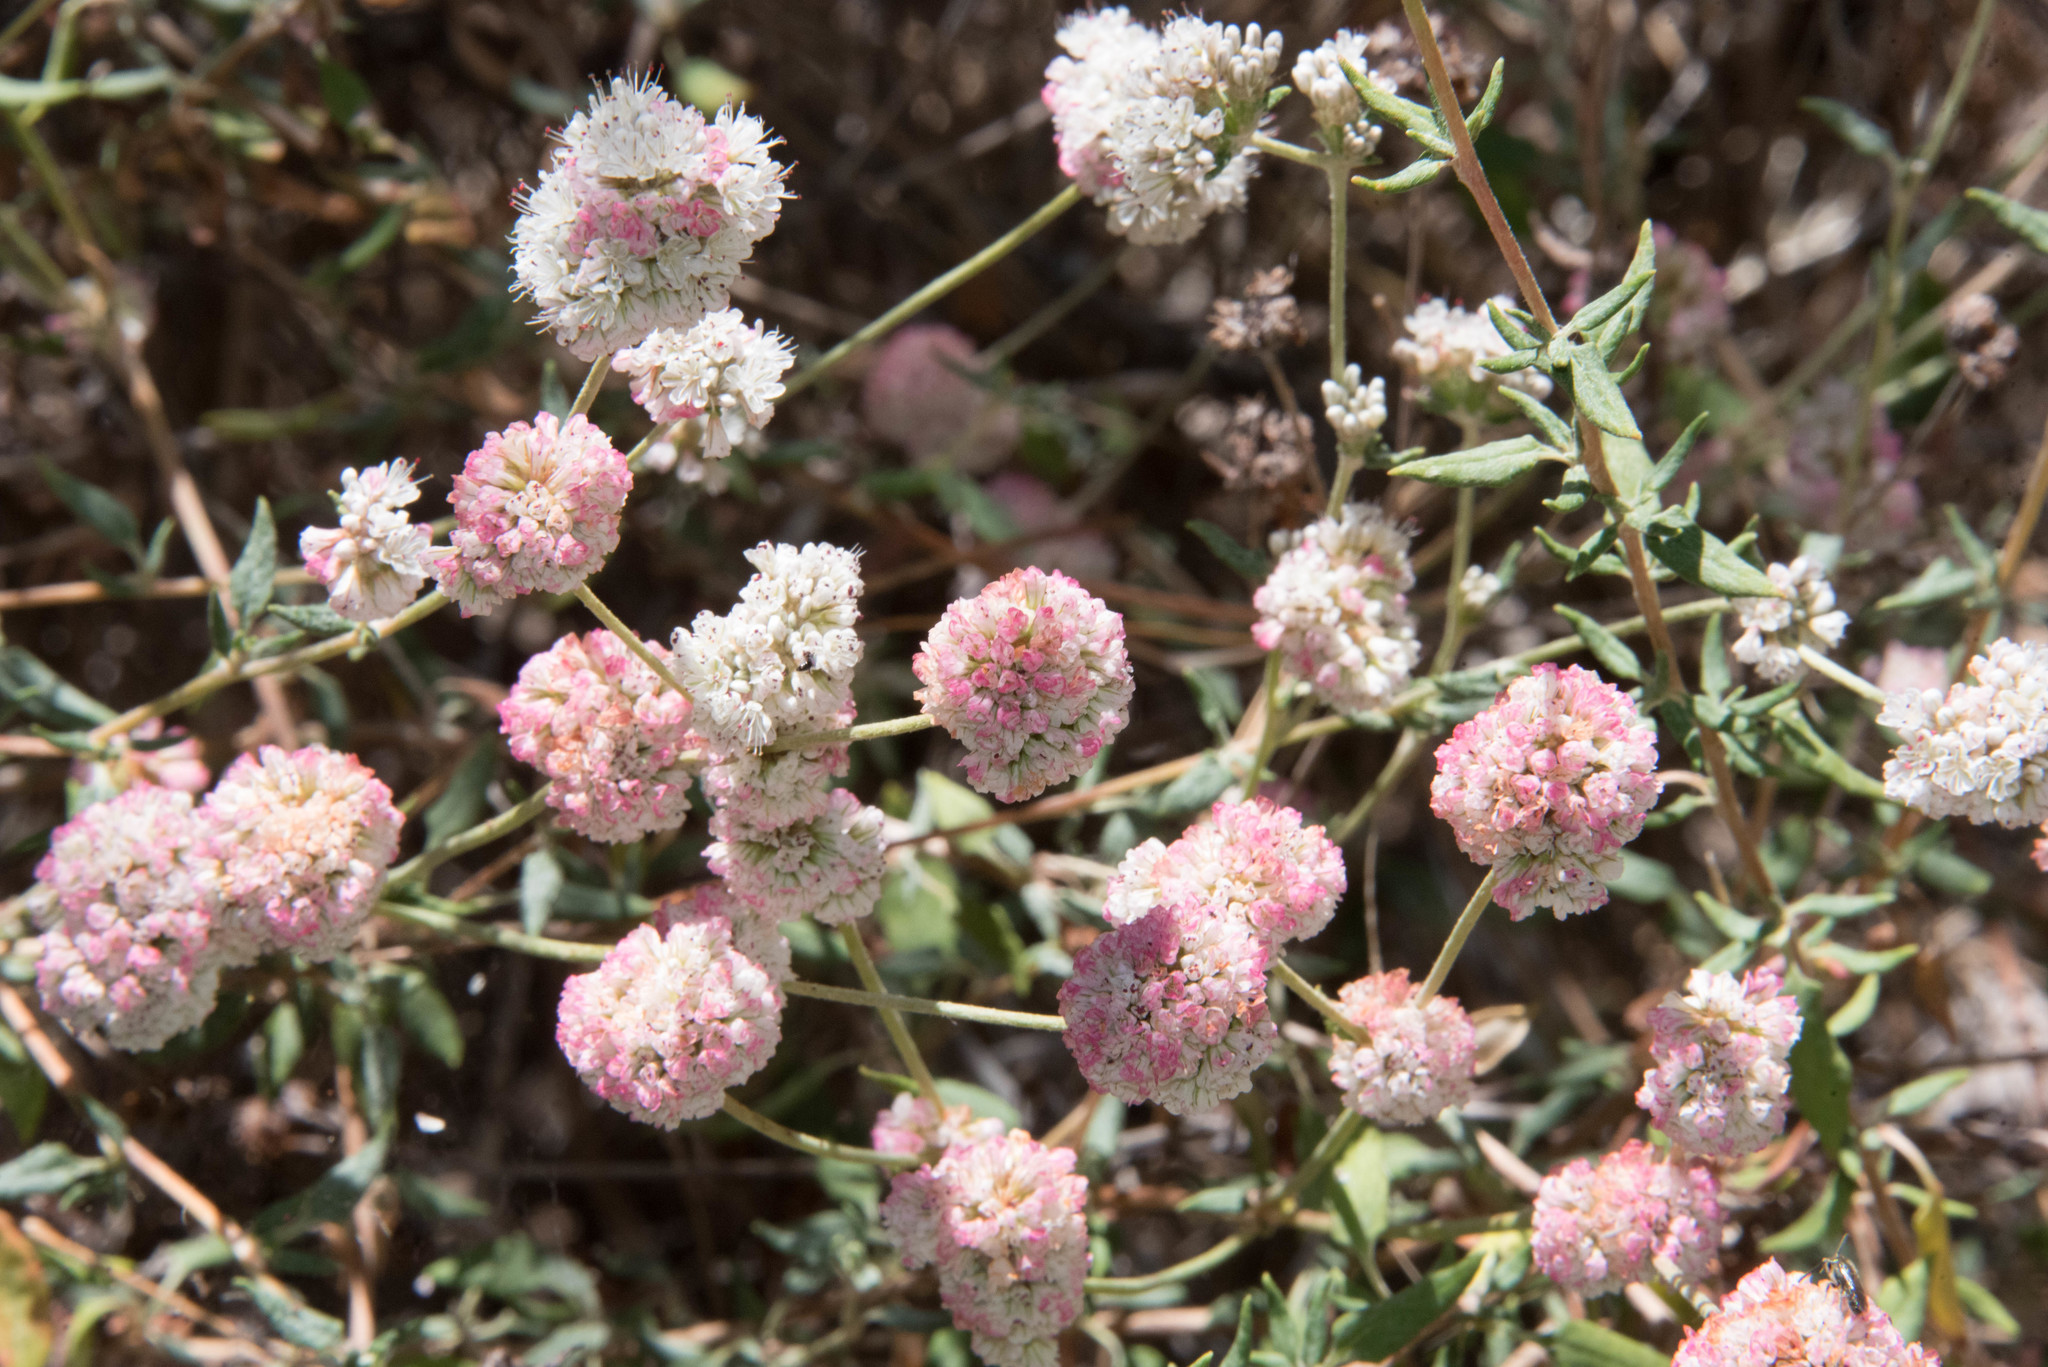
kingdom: Plantae
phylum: Tracheophyta
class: Magnoliopsida
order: Caryophyllales
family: Polygonaceae
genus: Eriogonum
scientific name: Eriogonum parvifolium
